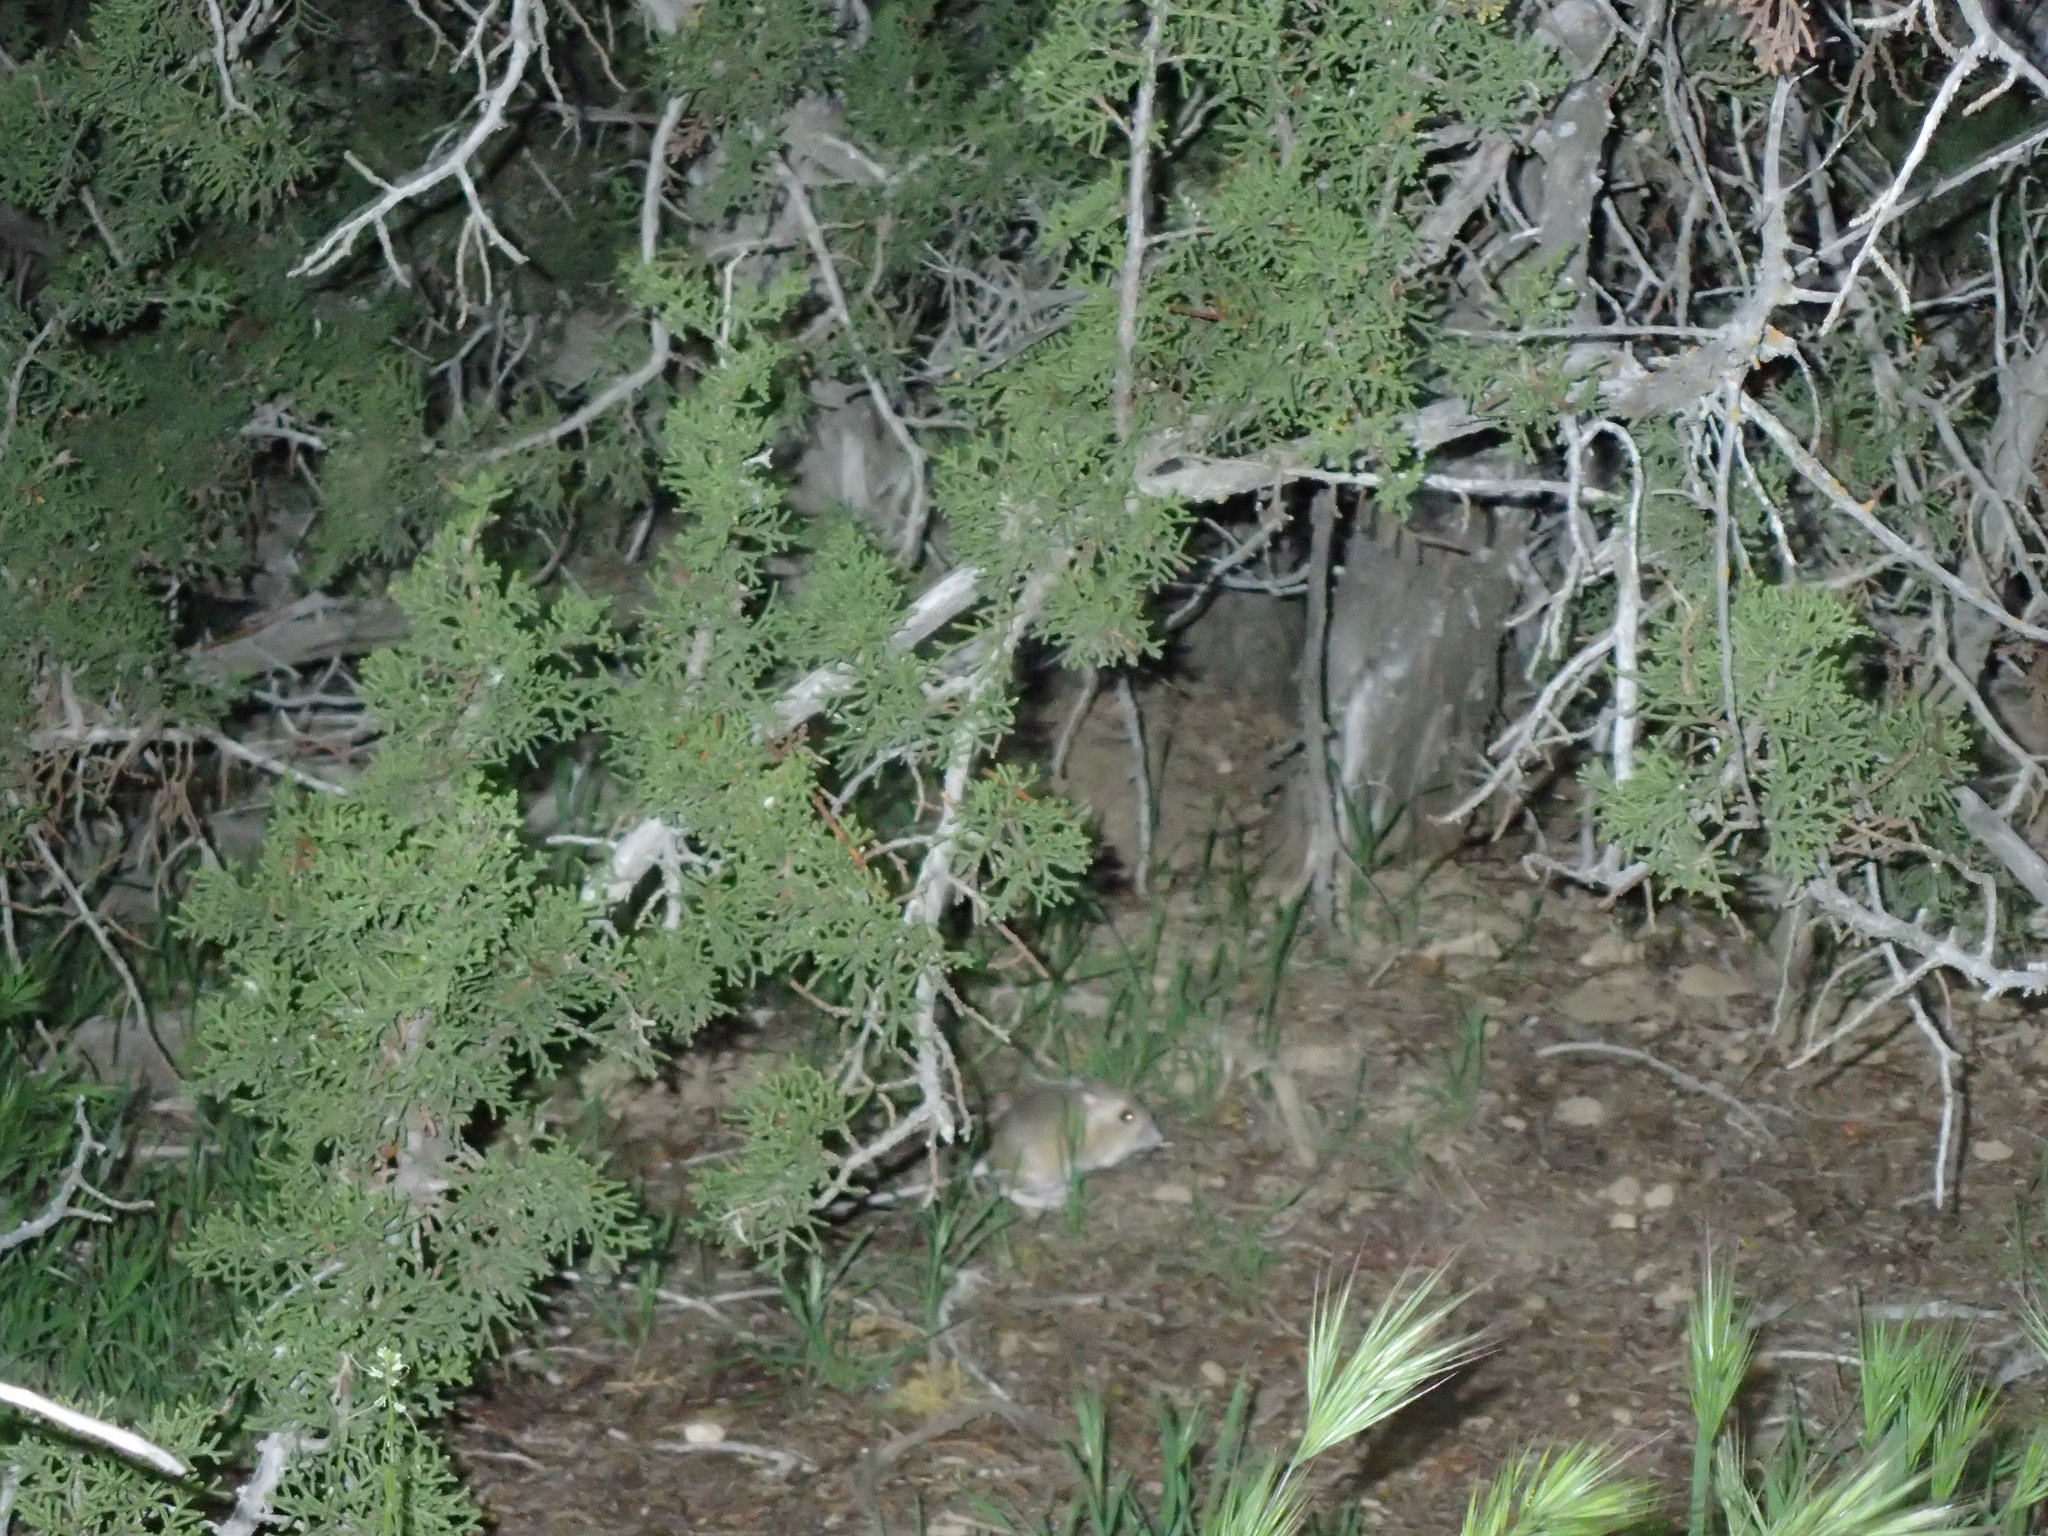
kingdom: Animalia
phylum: Chordata
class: Mammalia
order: Rodentia
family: Heteromyidae
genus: Dipodomys
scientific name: Dipodomys heermanni
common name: Heermann's kangaroo rat
